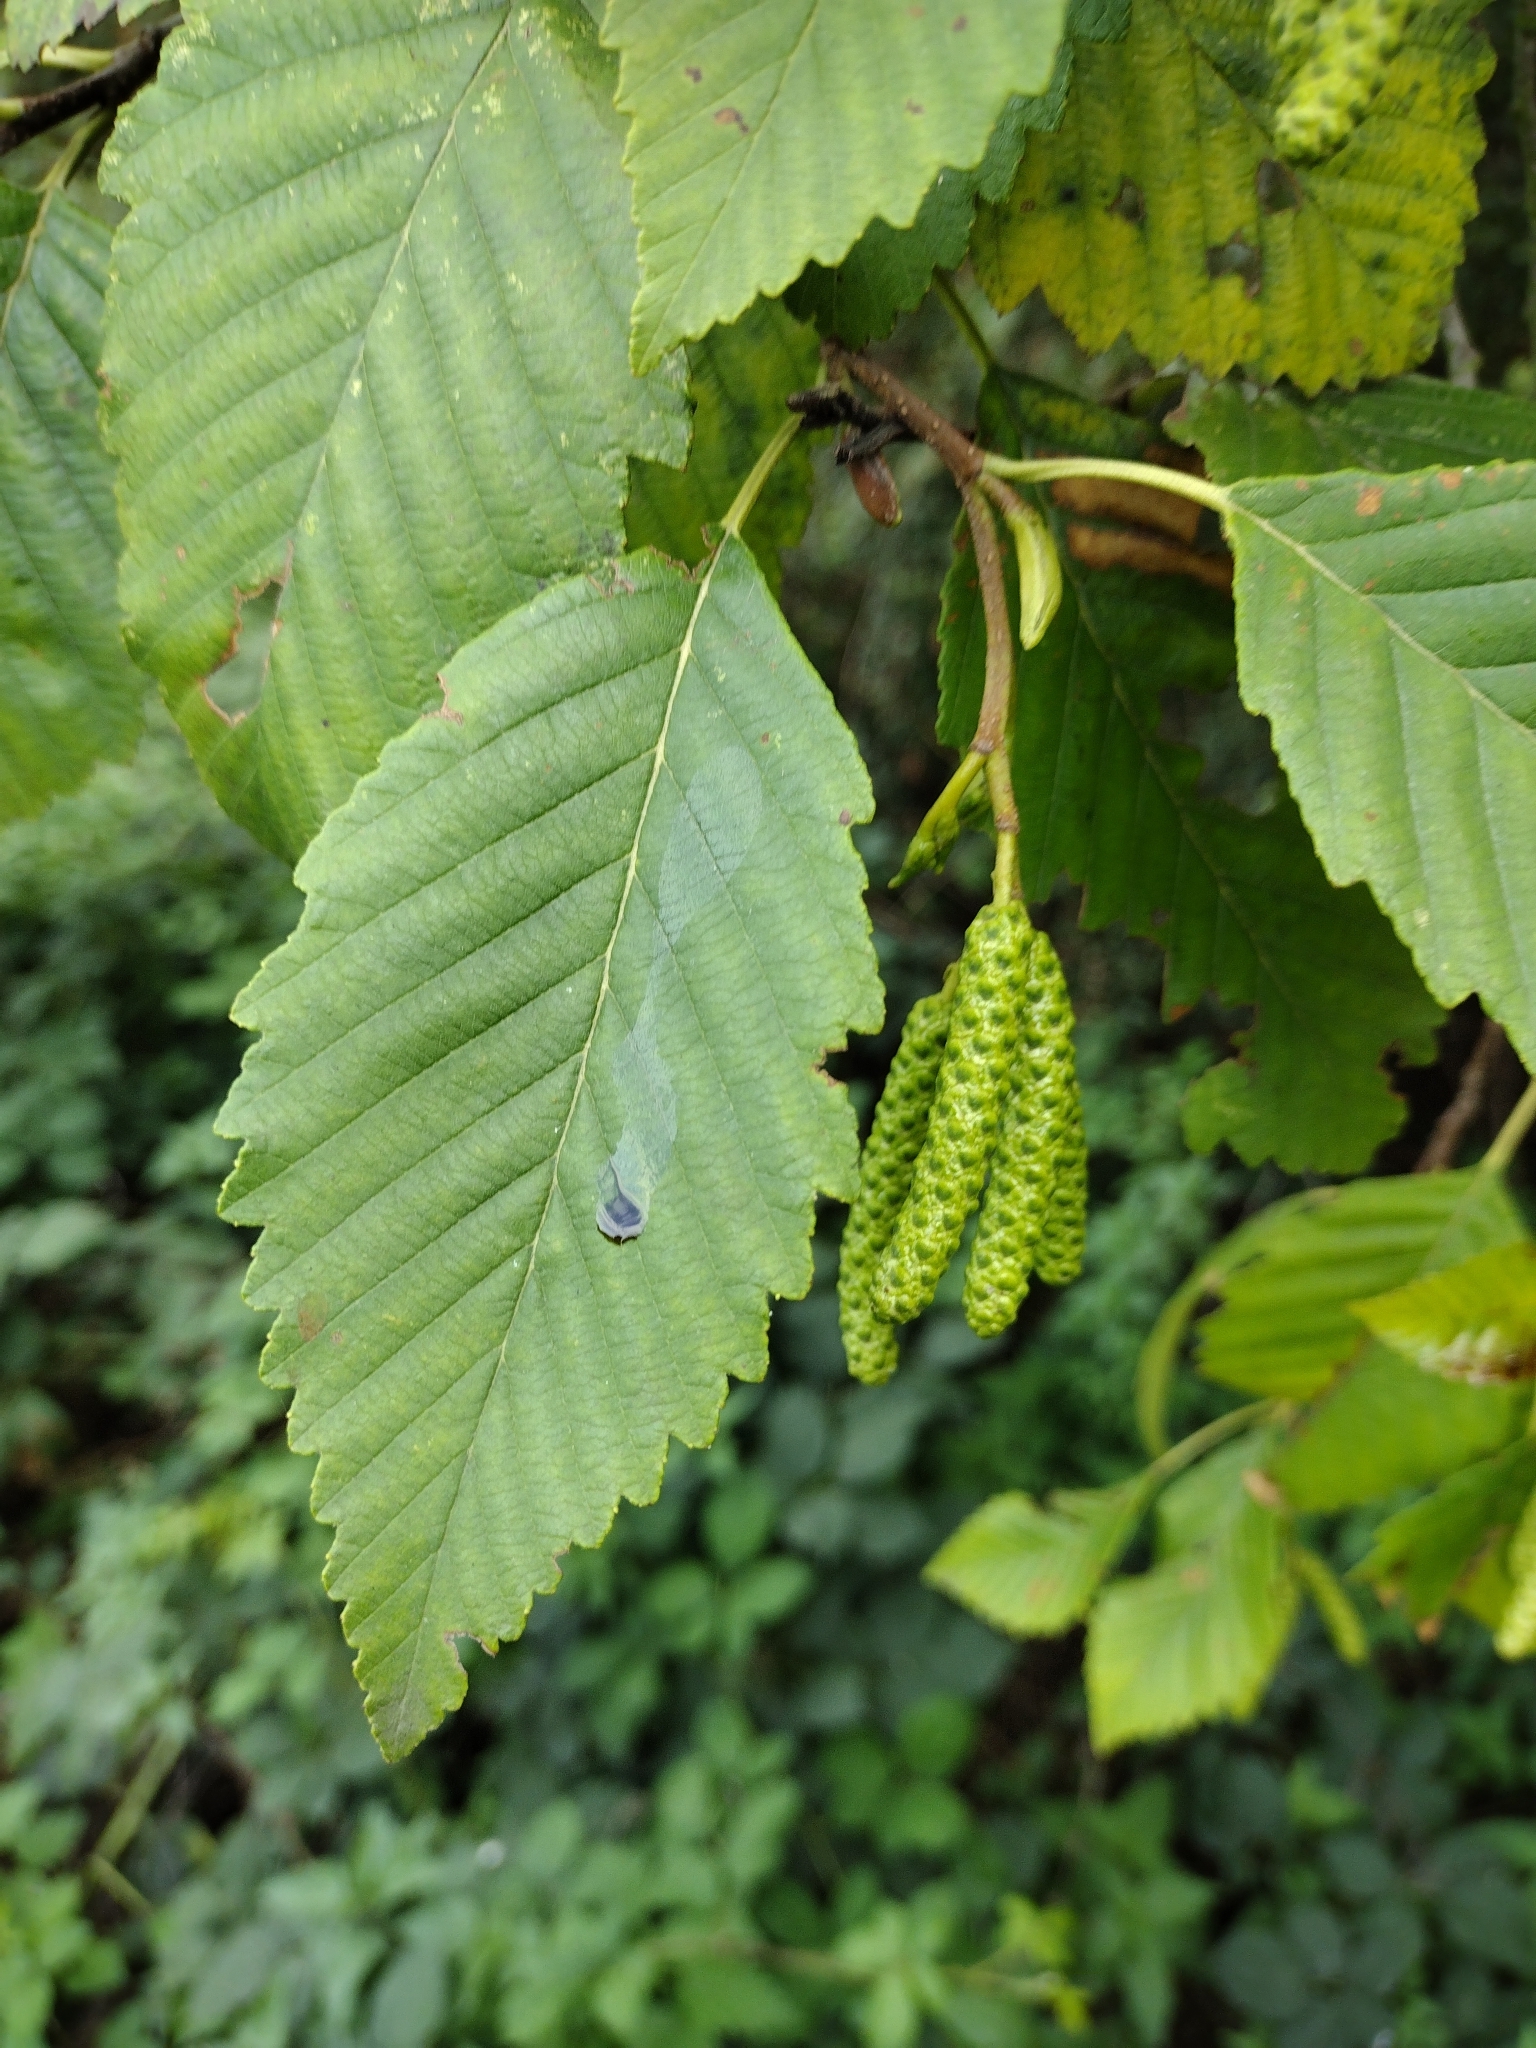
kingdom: Plantae
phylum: Tracheophyta
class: Magnoliopsida
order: Fagales
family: Betulaceae
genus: Alnus
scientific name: Alnus incana
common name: Grey alder
